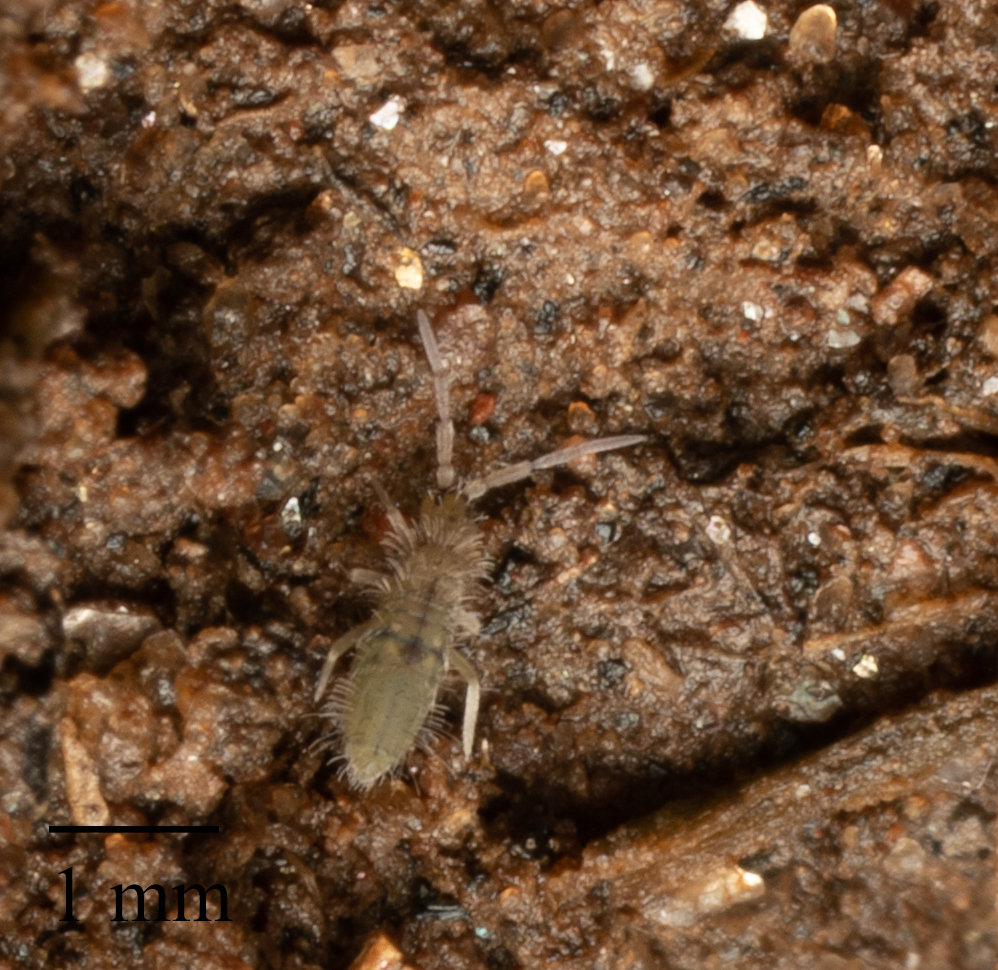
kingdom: Animalia
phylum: Arthropoda
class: Collembola
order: Entomobryomorpha
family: Entomobryidae
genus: Entomobrya
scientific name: Entomobrya unostrigata
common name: Springtail
